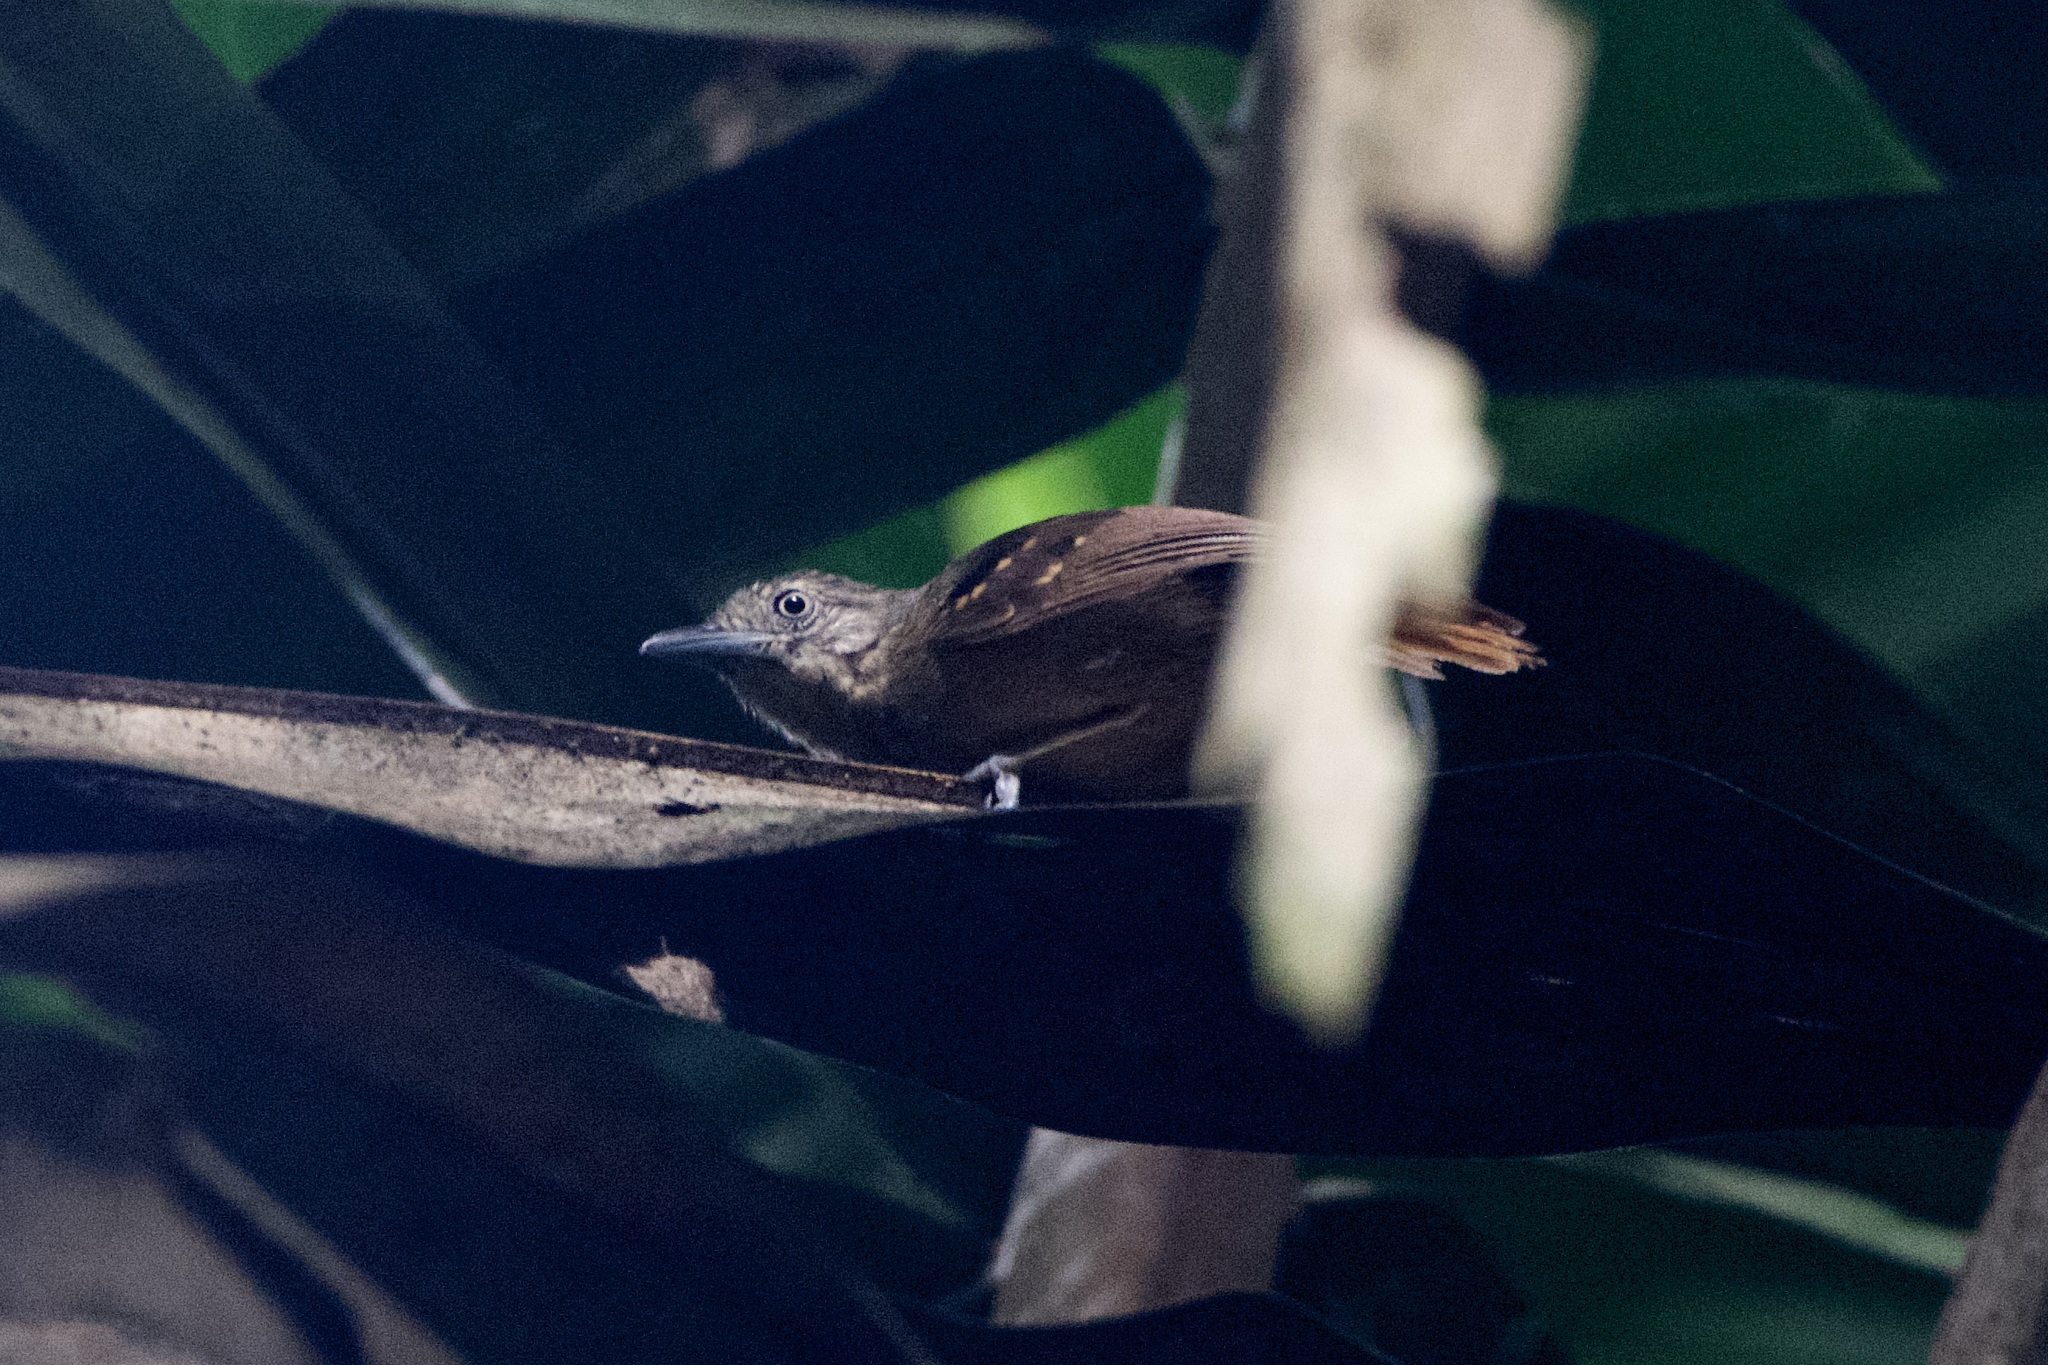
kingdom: Animalia
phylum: Chordata
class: Aves
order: Passeriformes
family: Thamnophilidae
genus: Epinecrophylla
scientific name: Epinecrophylla fulviventris
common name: Checker-throated antwren
